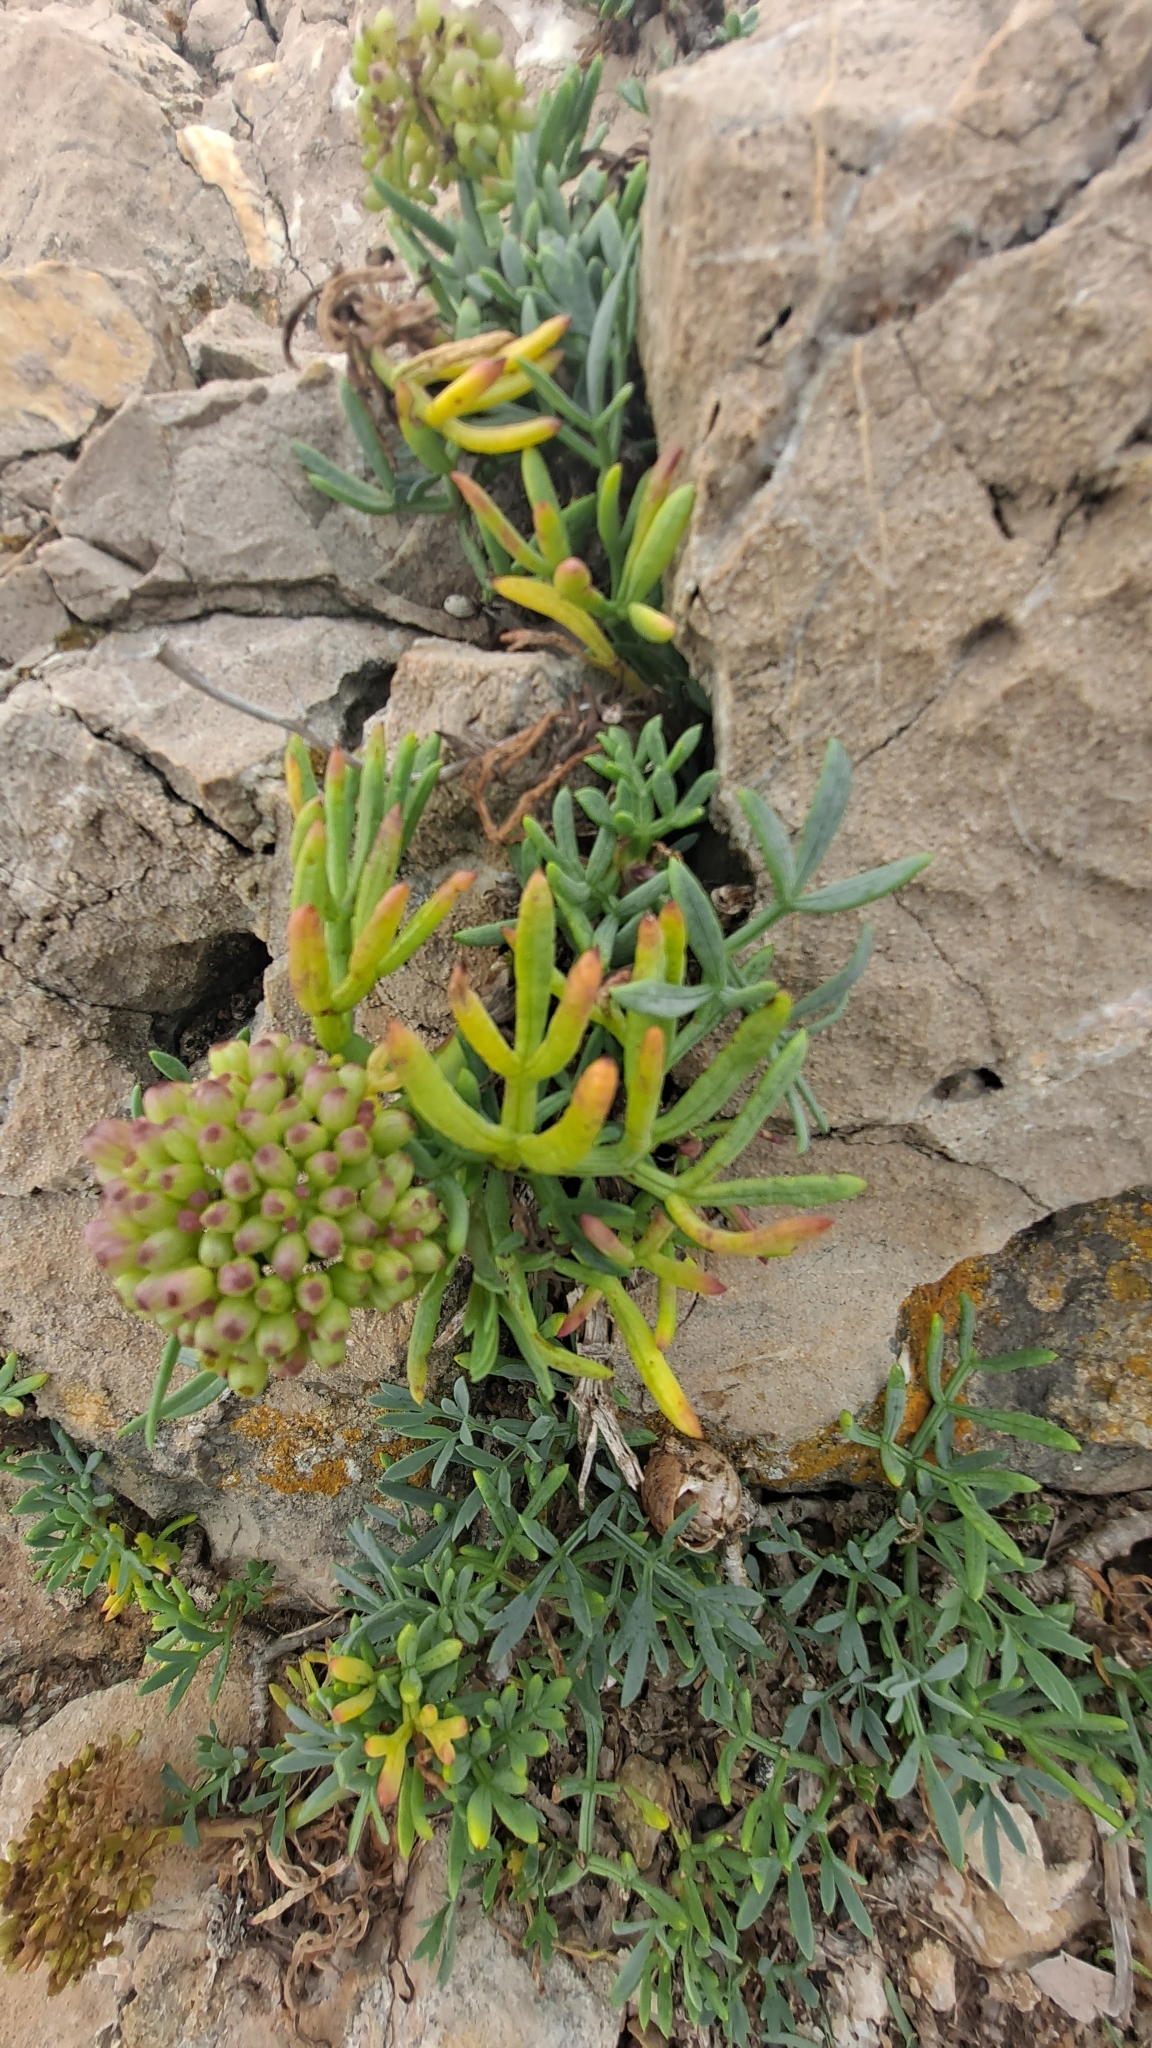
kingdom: Plantae
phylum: Tracheophyta
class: Magnoliopsida
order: Apiales
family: Apiaceae
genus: Crithmum
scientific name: Crithmum maritimum
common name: Rock samphire
